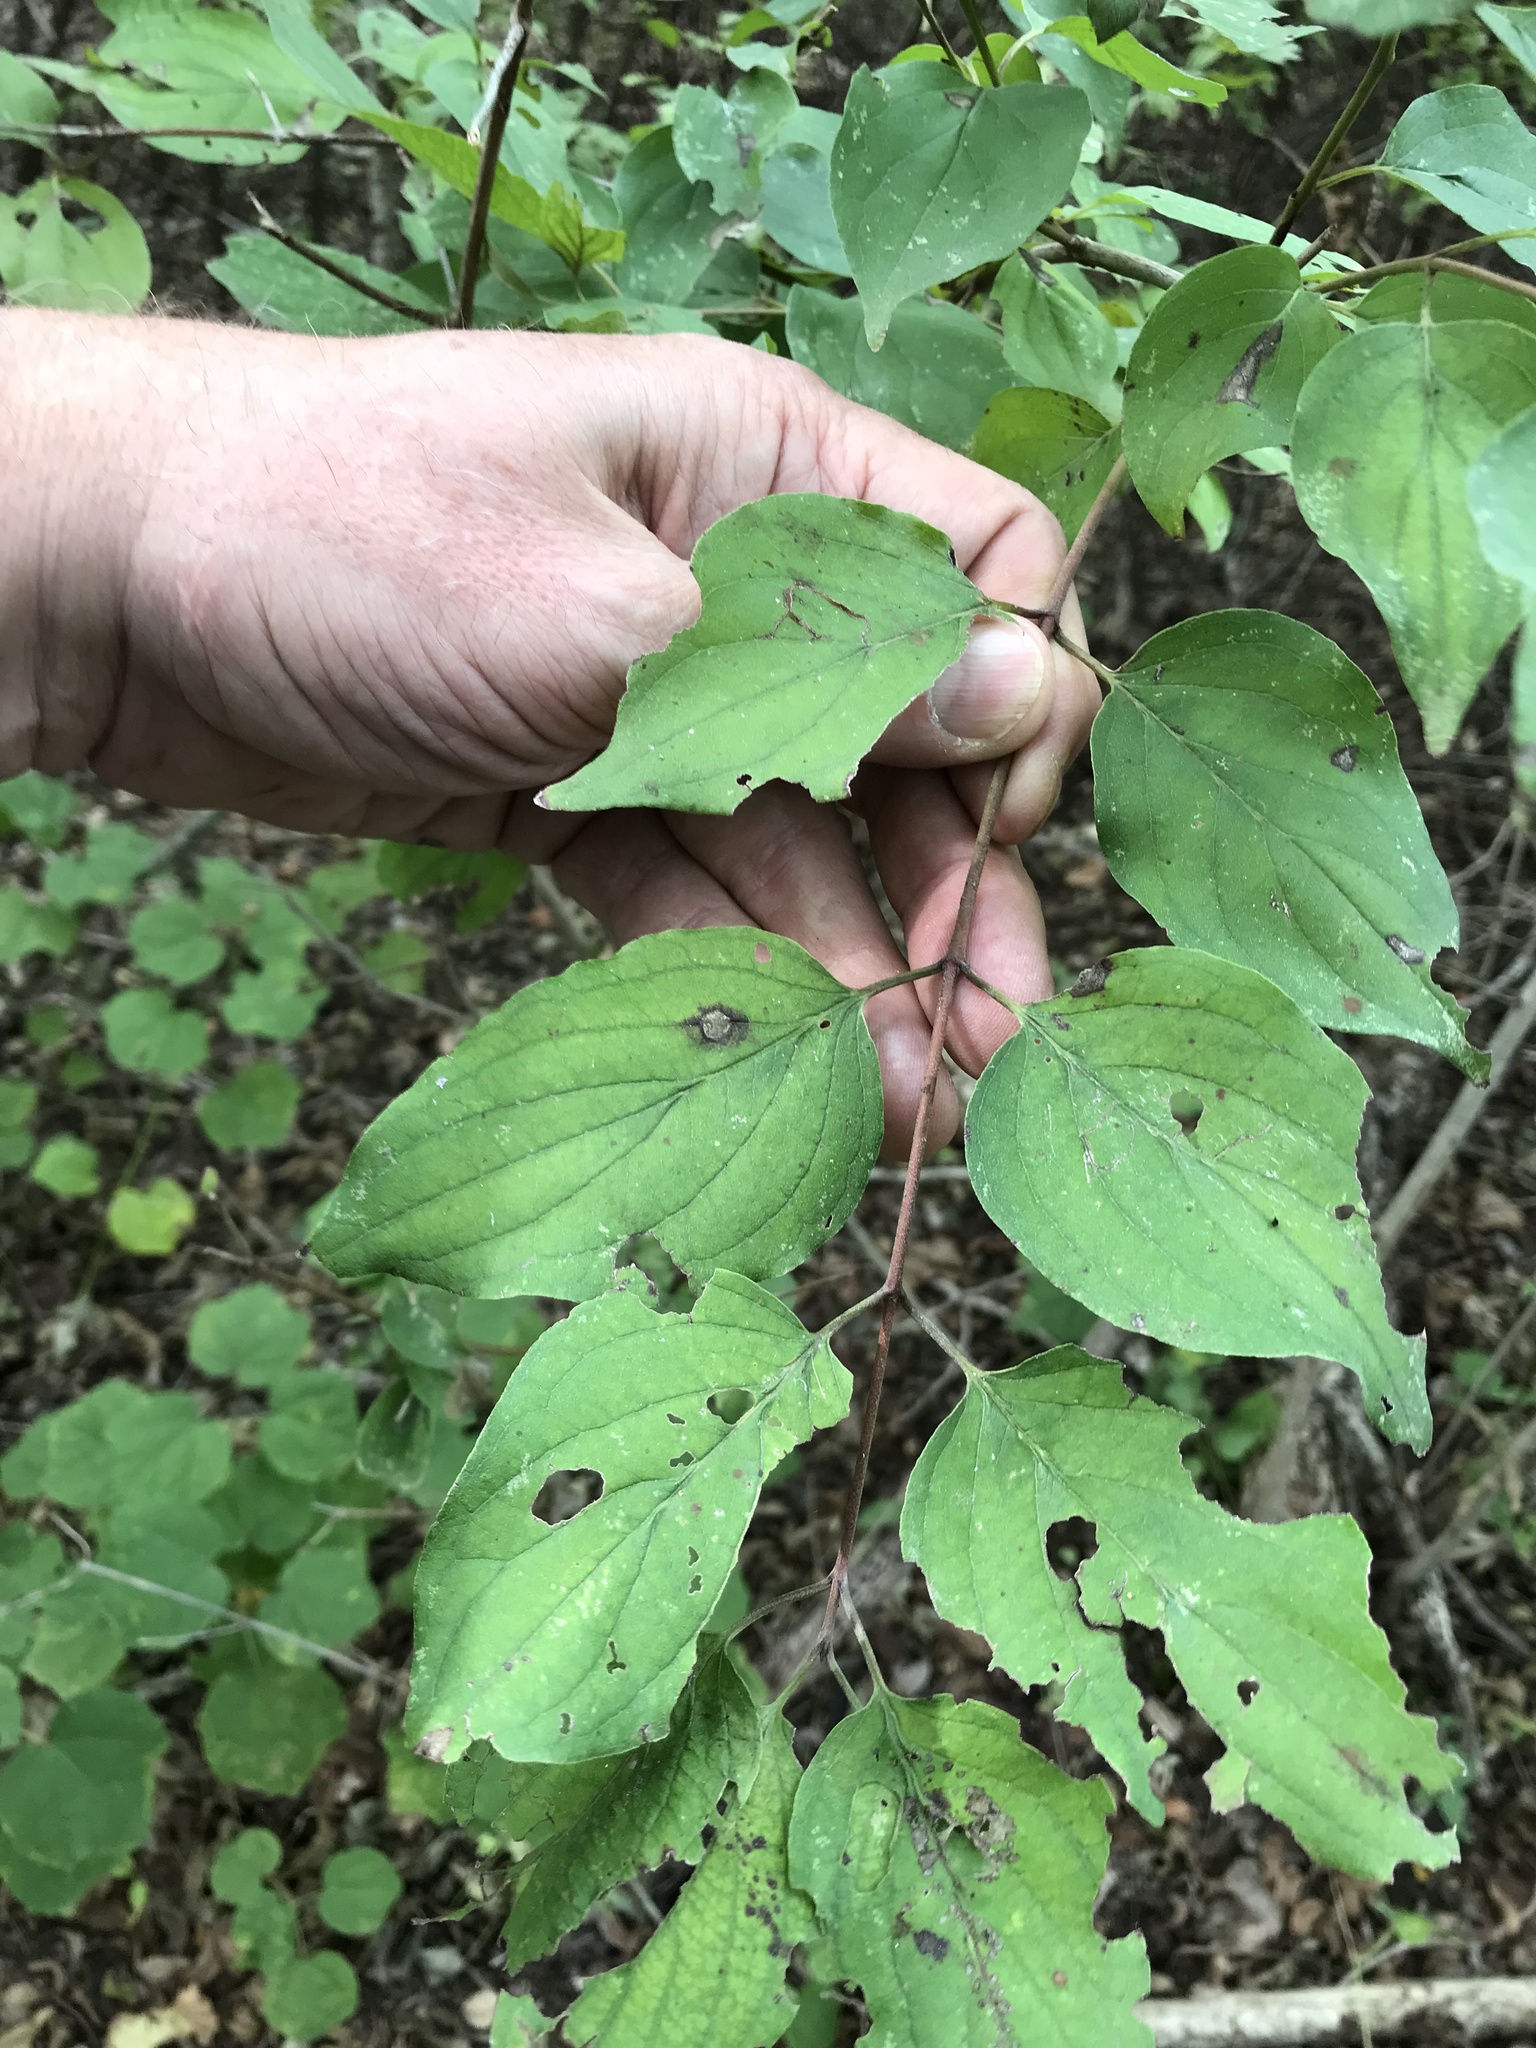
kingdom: Plantae
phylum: Tracheophyta
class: Magnoliopsida
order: Cornales
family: Cornaceae
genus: Cornus
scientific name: Cornus drummondii
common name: Rough-leaf dogwood
